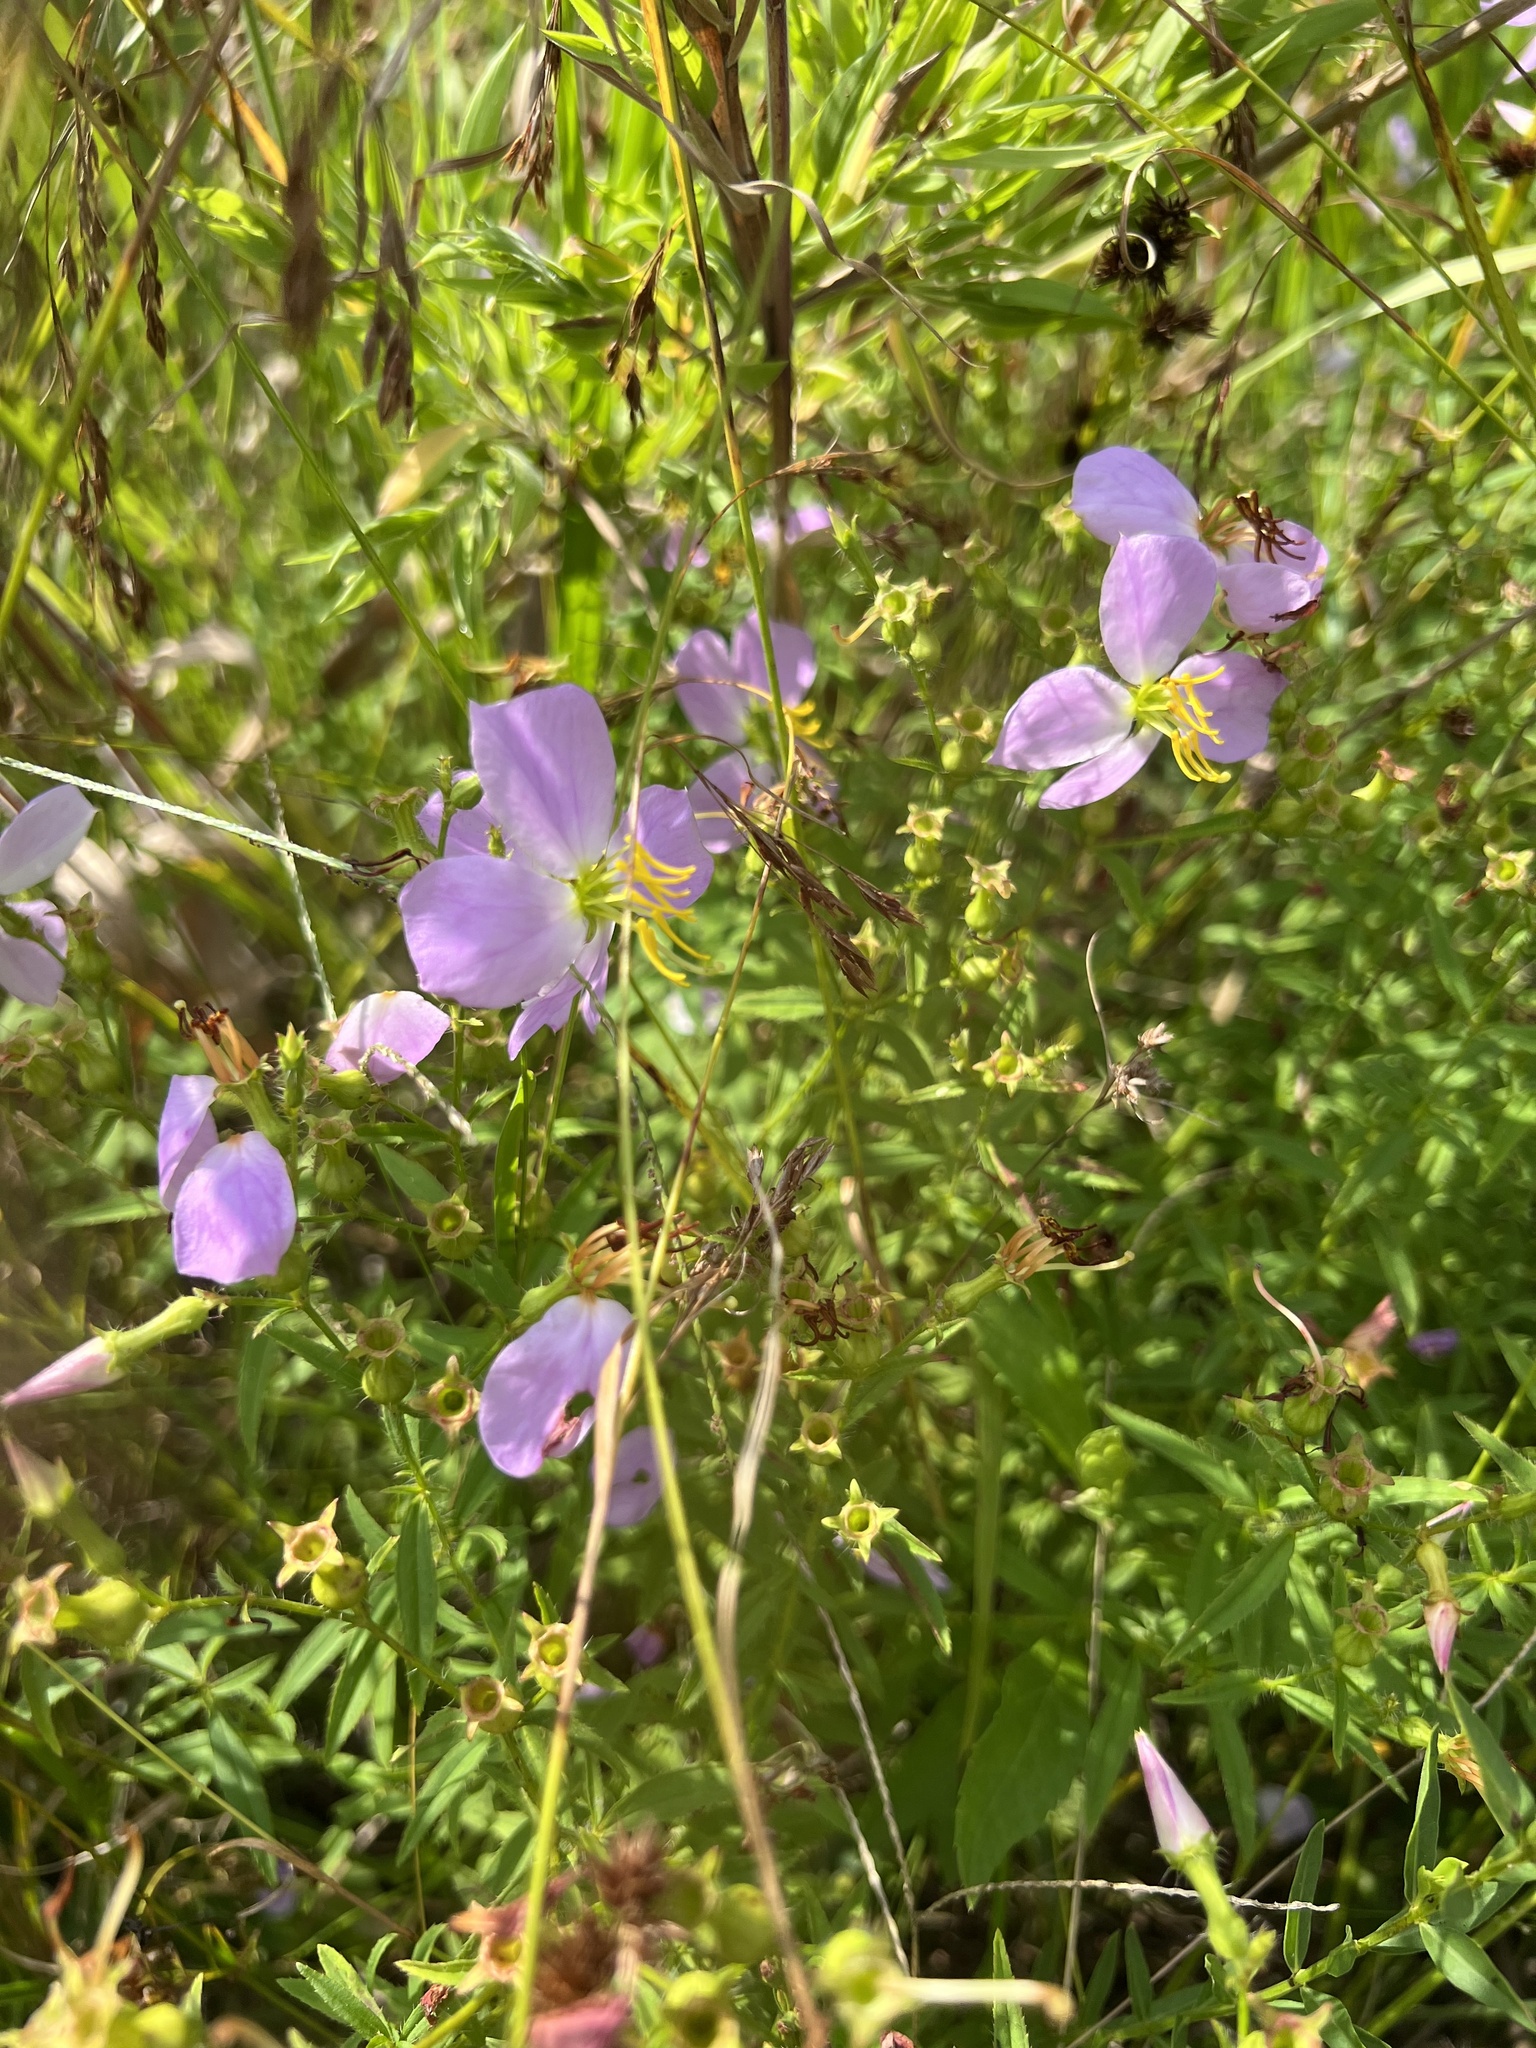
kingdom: Plantae
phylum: Tracheophyta
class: Magnoliopsida
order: Myrtales
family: Melastomataceae
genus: Rhexia
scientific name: Rhexia mariana
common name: Dull meadow-pitcher
